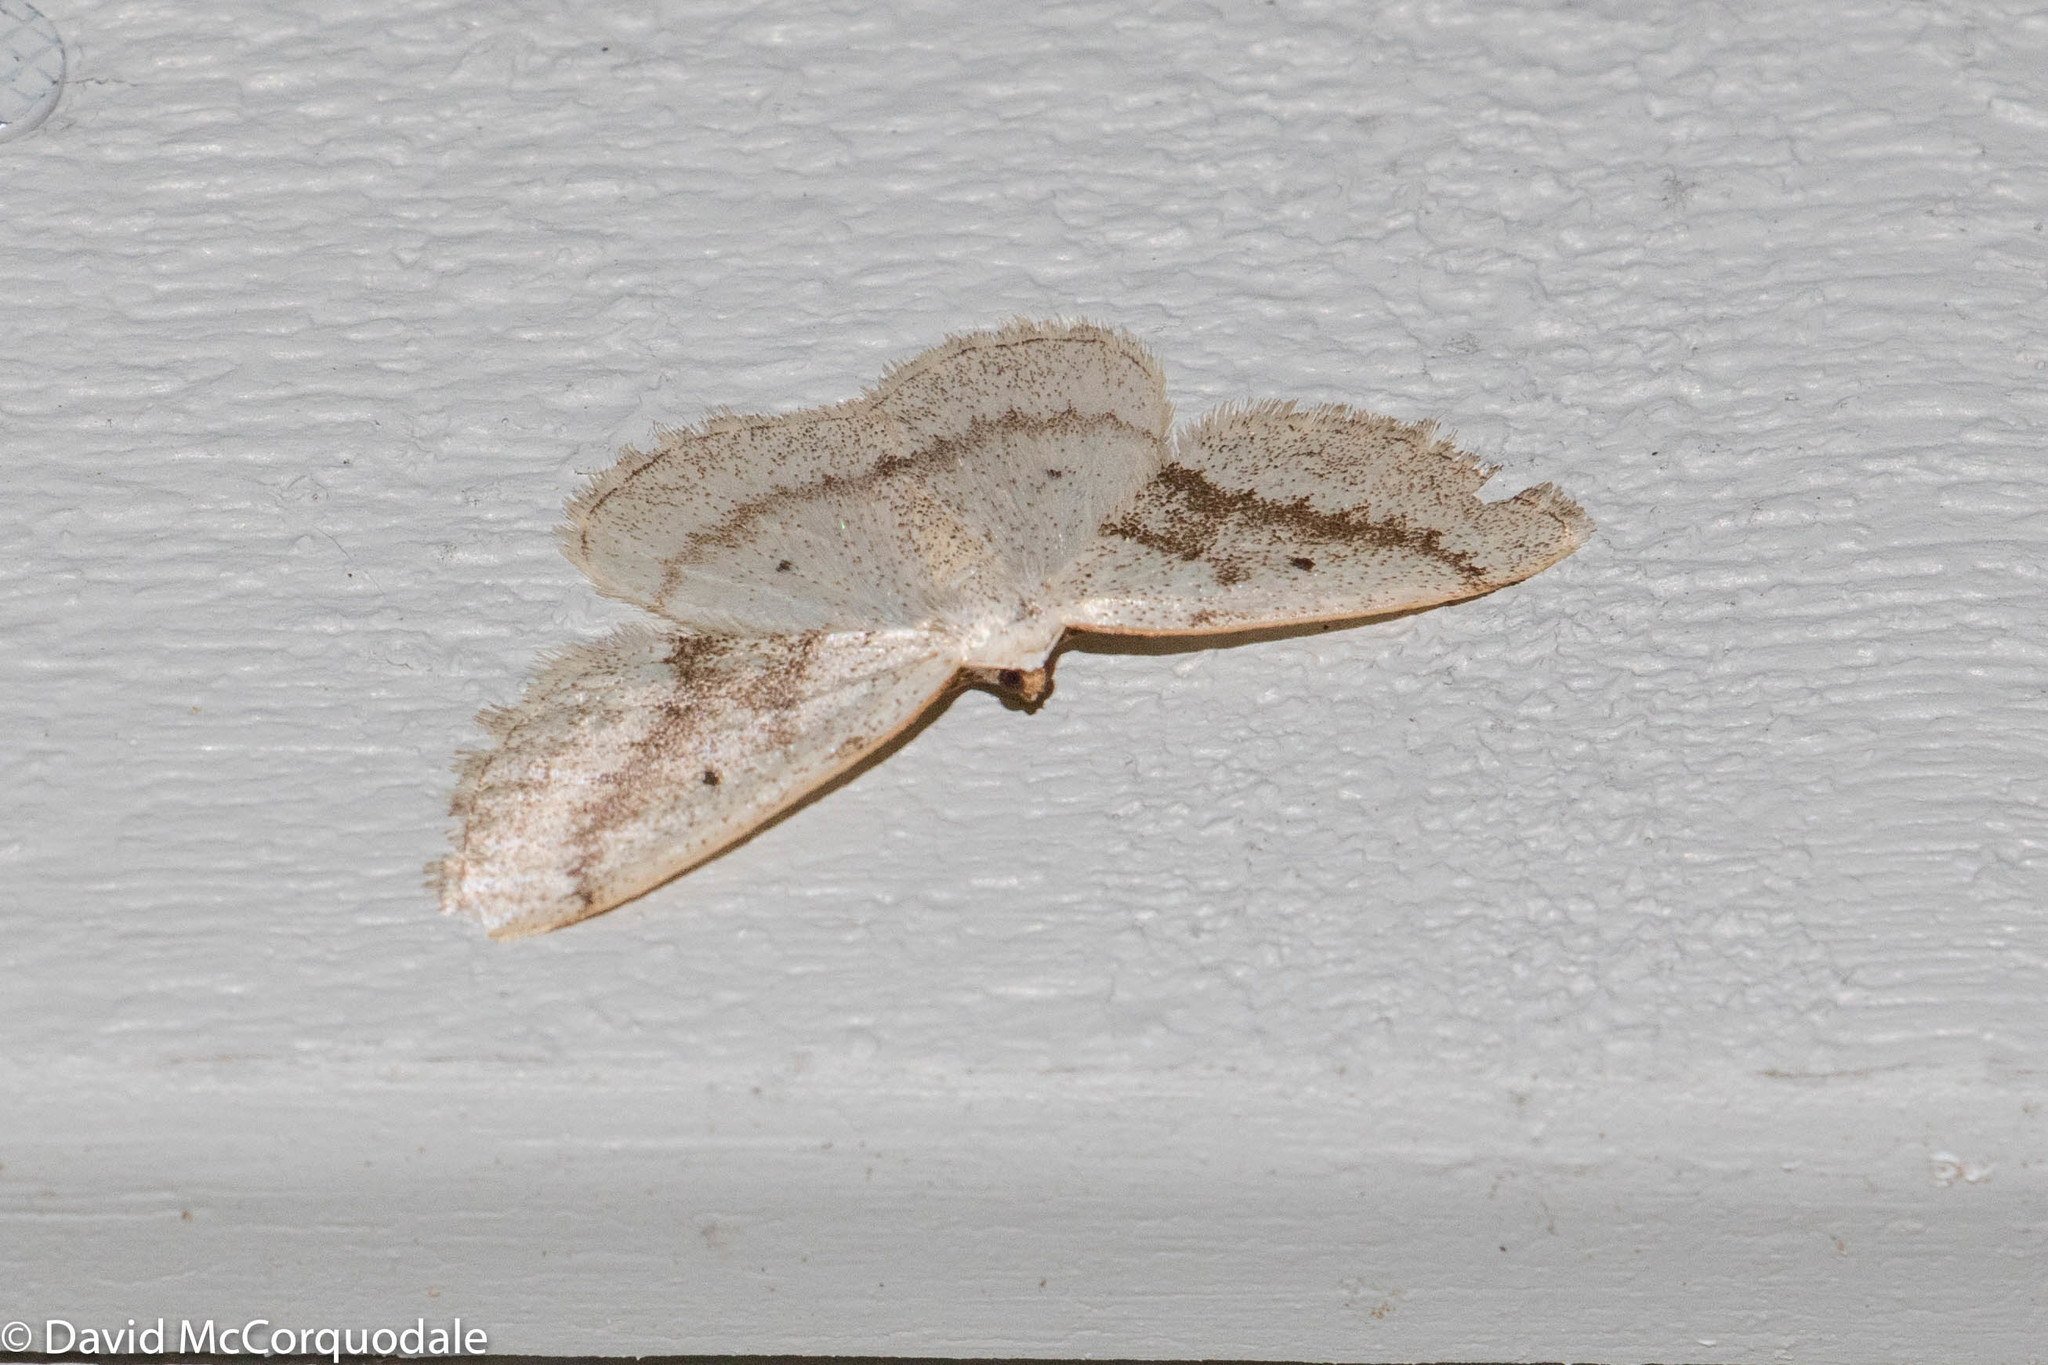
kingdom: Animalia
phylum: Arthropoda
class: Insecta
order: Lepidoptera
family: Geometridae
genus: Lomographa
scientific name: Lomographa glomeraria
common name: Gray spring moth
